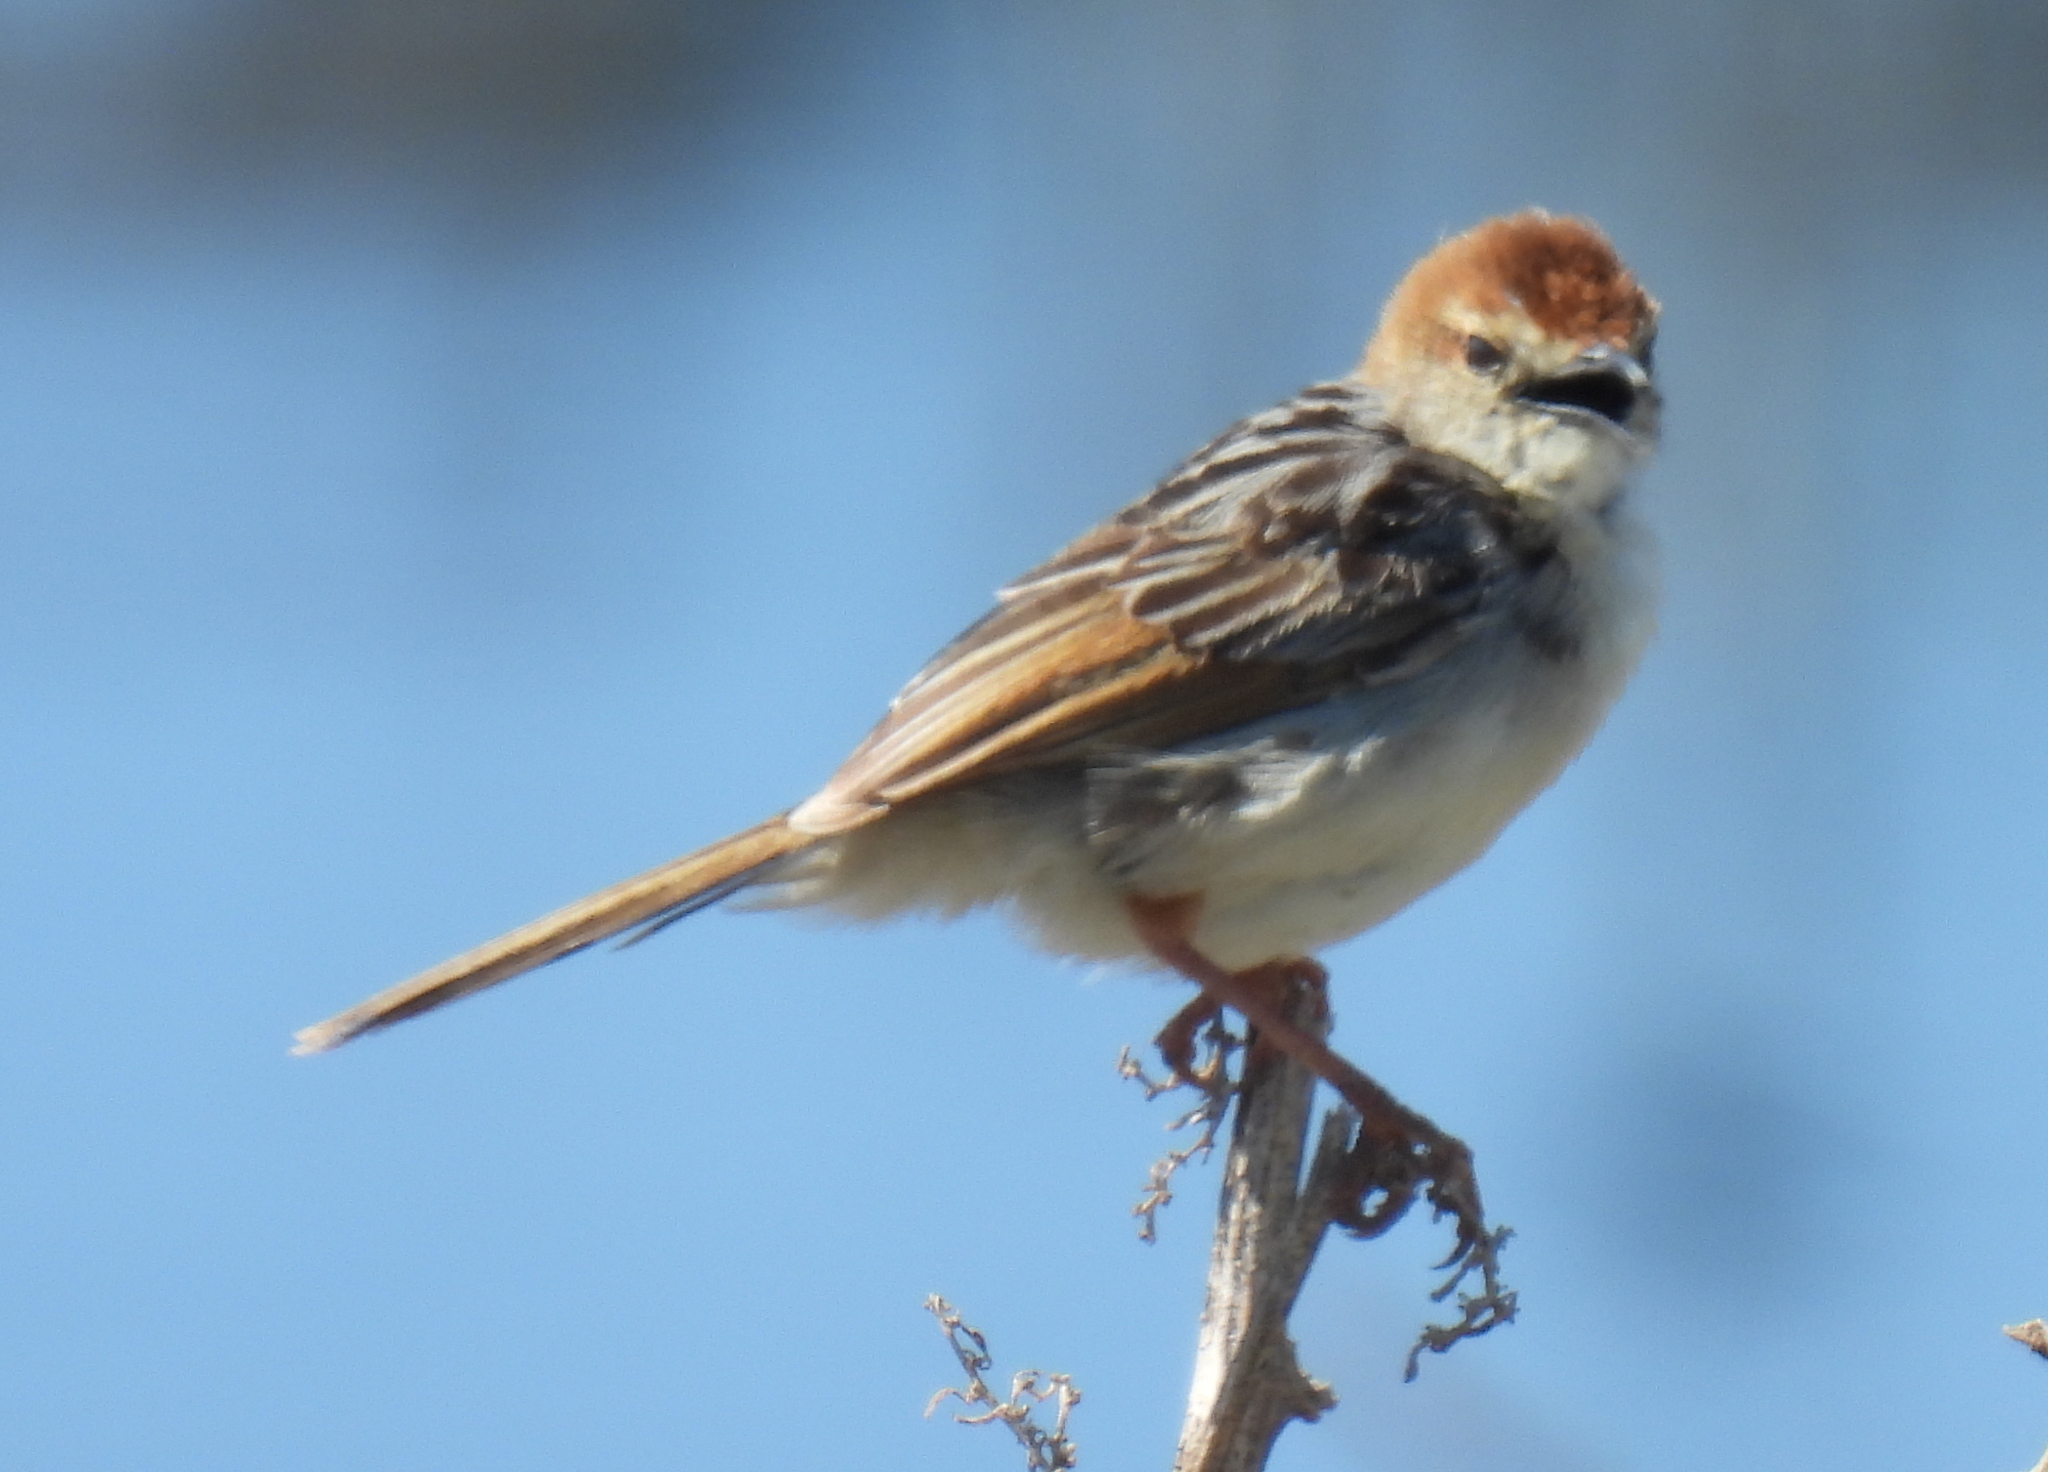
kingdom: Animalia
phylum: Chordata
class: Aves
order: Passeriformes
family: Cisticolidae
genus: Cisticola
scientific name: Cisticola tinniens
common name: Levaillant's cisticola
